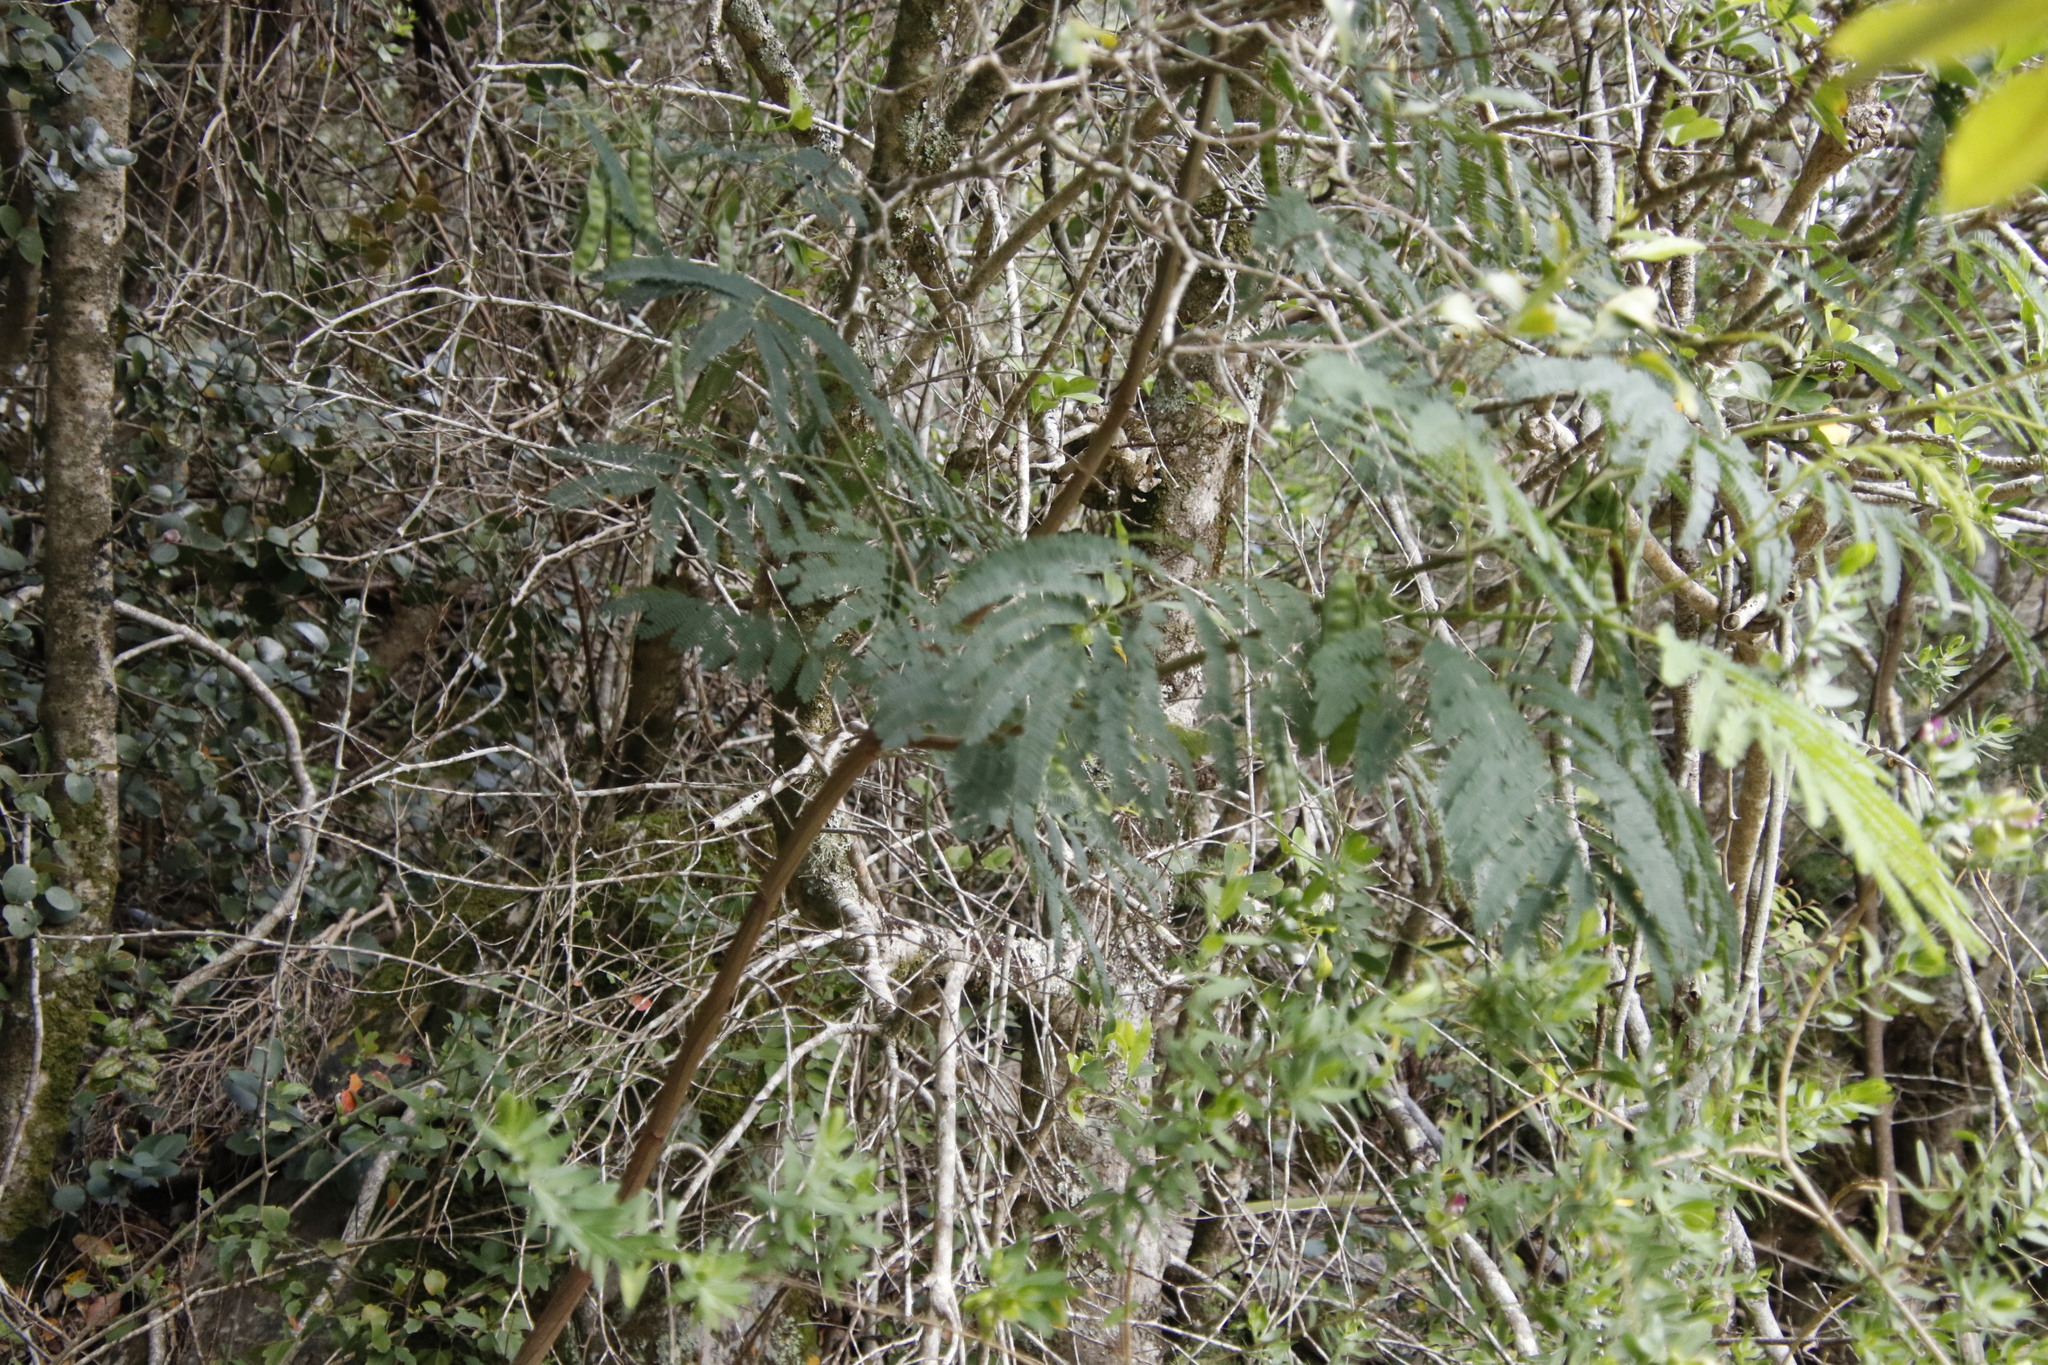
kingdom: Plantae
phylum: Tracheophyta
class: Magnoliopsida
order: Fabales
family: Fabaceae
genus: Paraserianthes
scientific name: Paraserianthes lophantha
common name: Plume albizia
